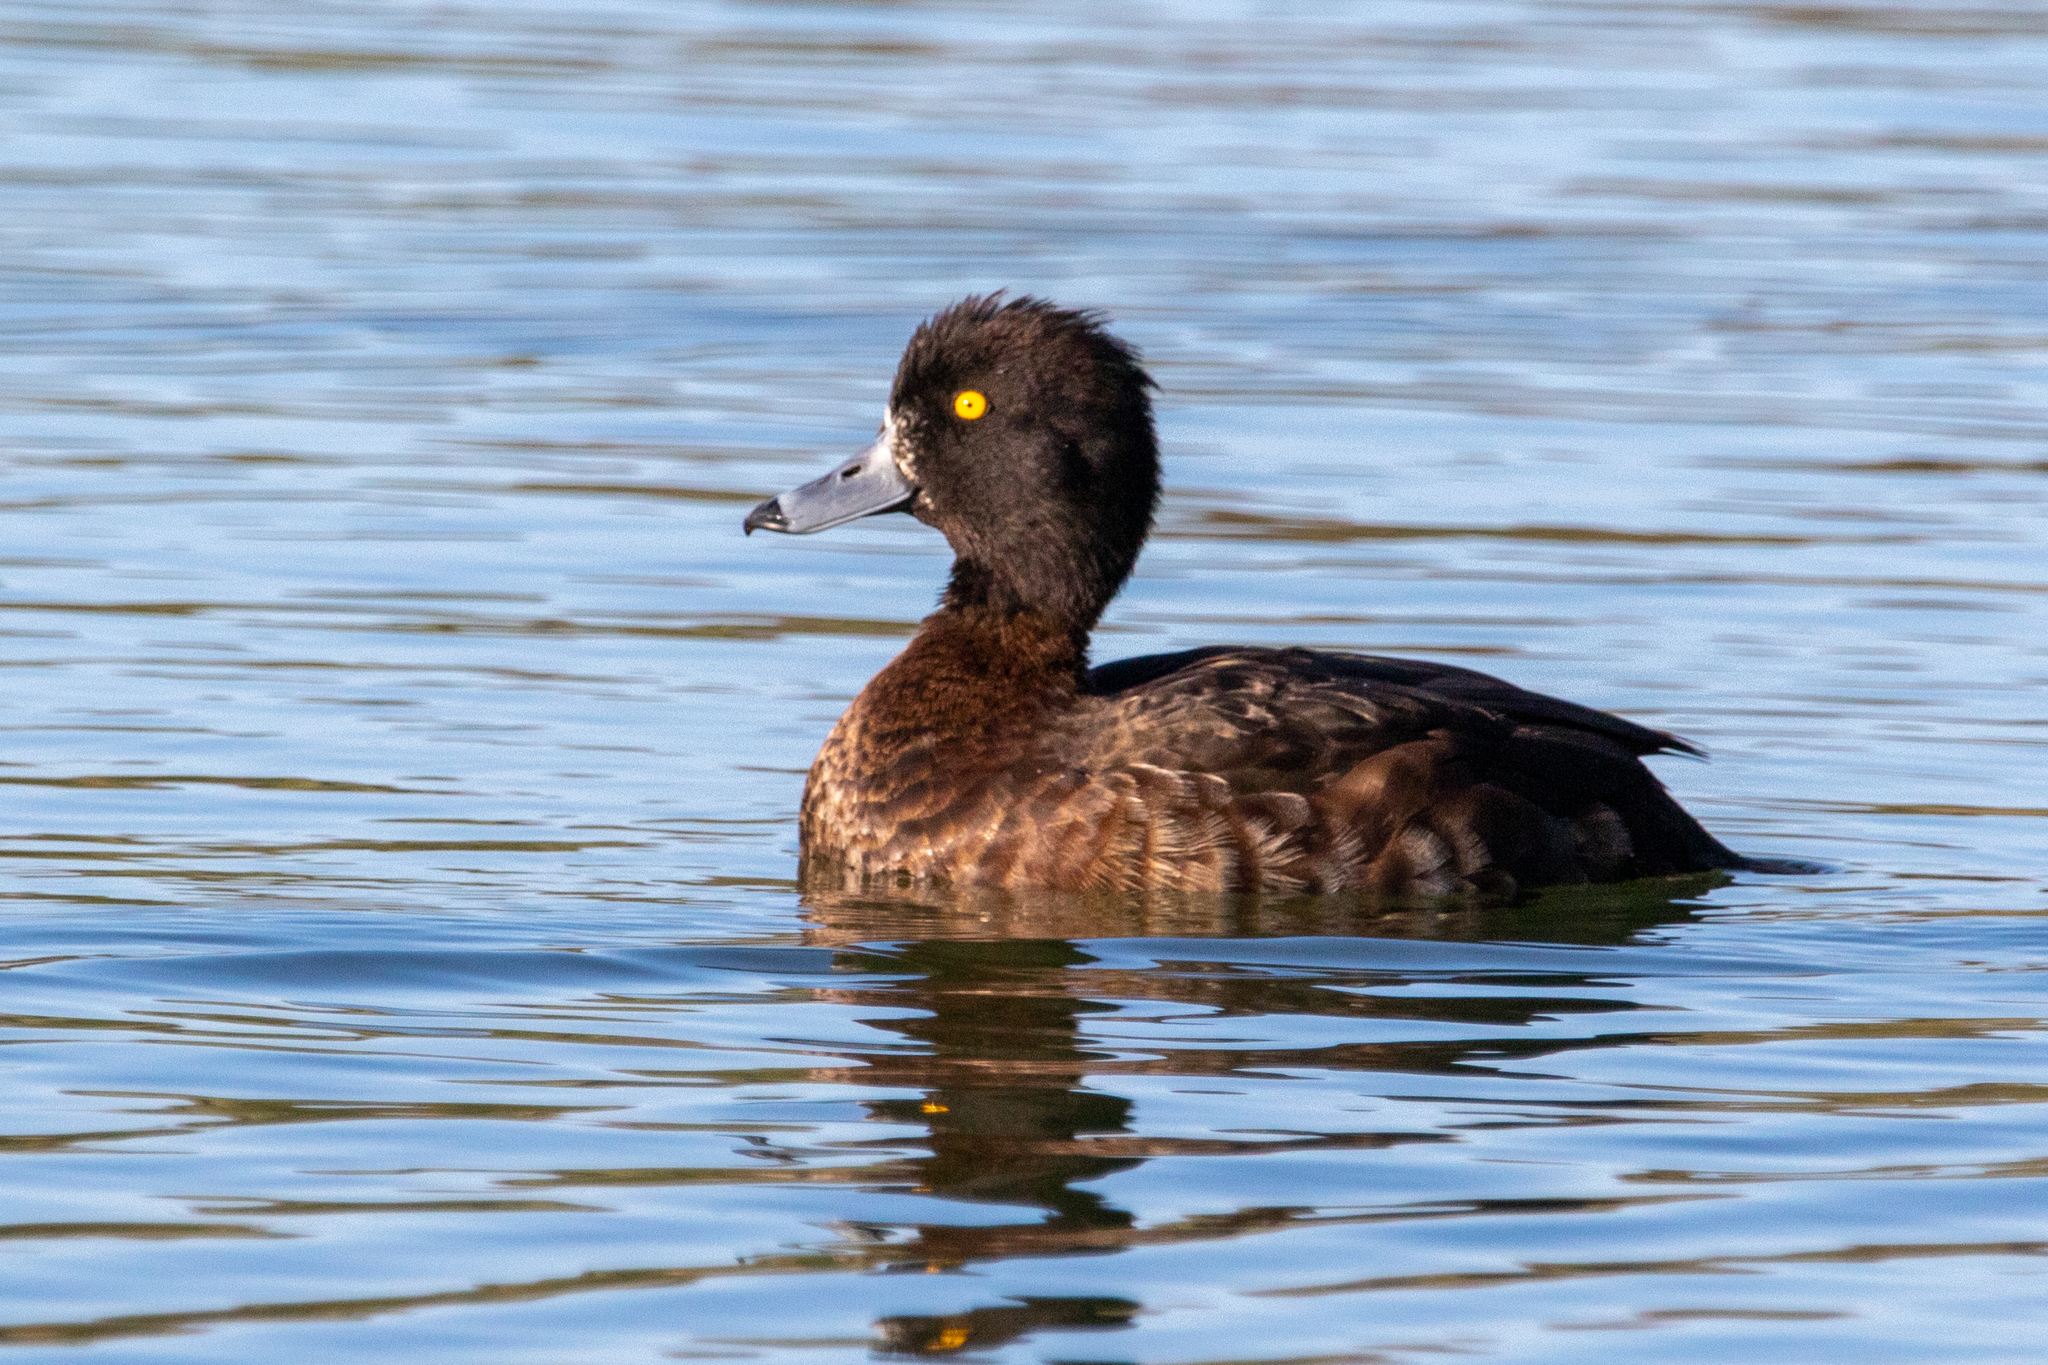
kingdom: Animalia
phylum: Chordata
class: Aves
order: Anseriformes
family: Anatidae
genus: Aythya
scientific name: Aythya fuligula
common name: Tufted duck
